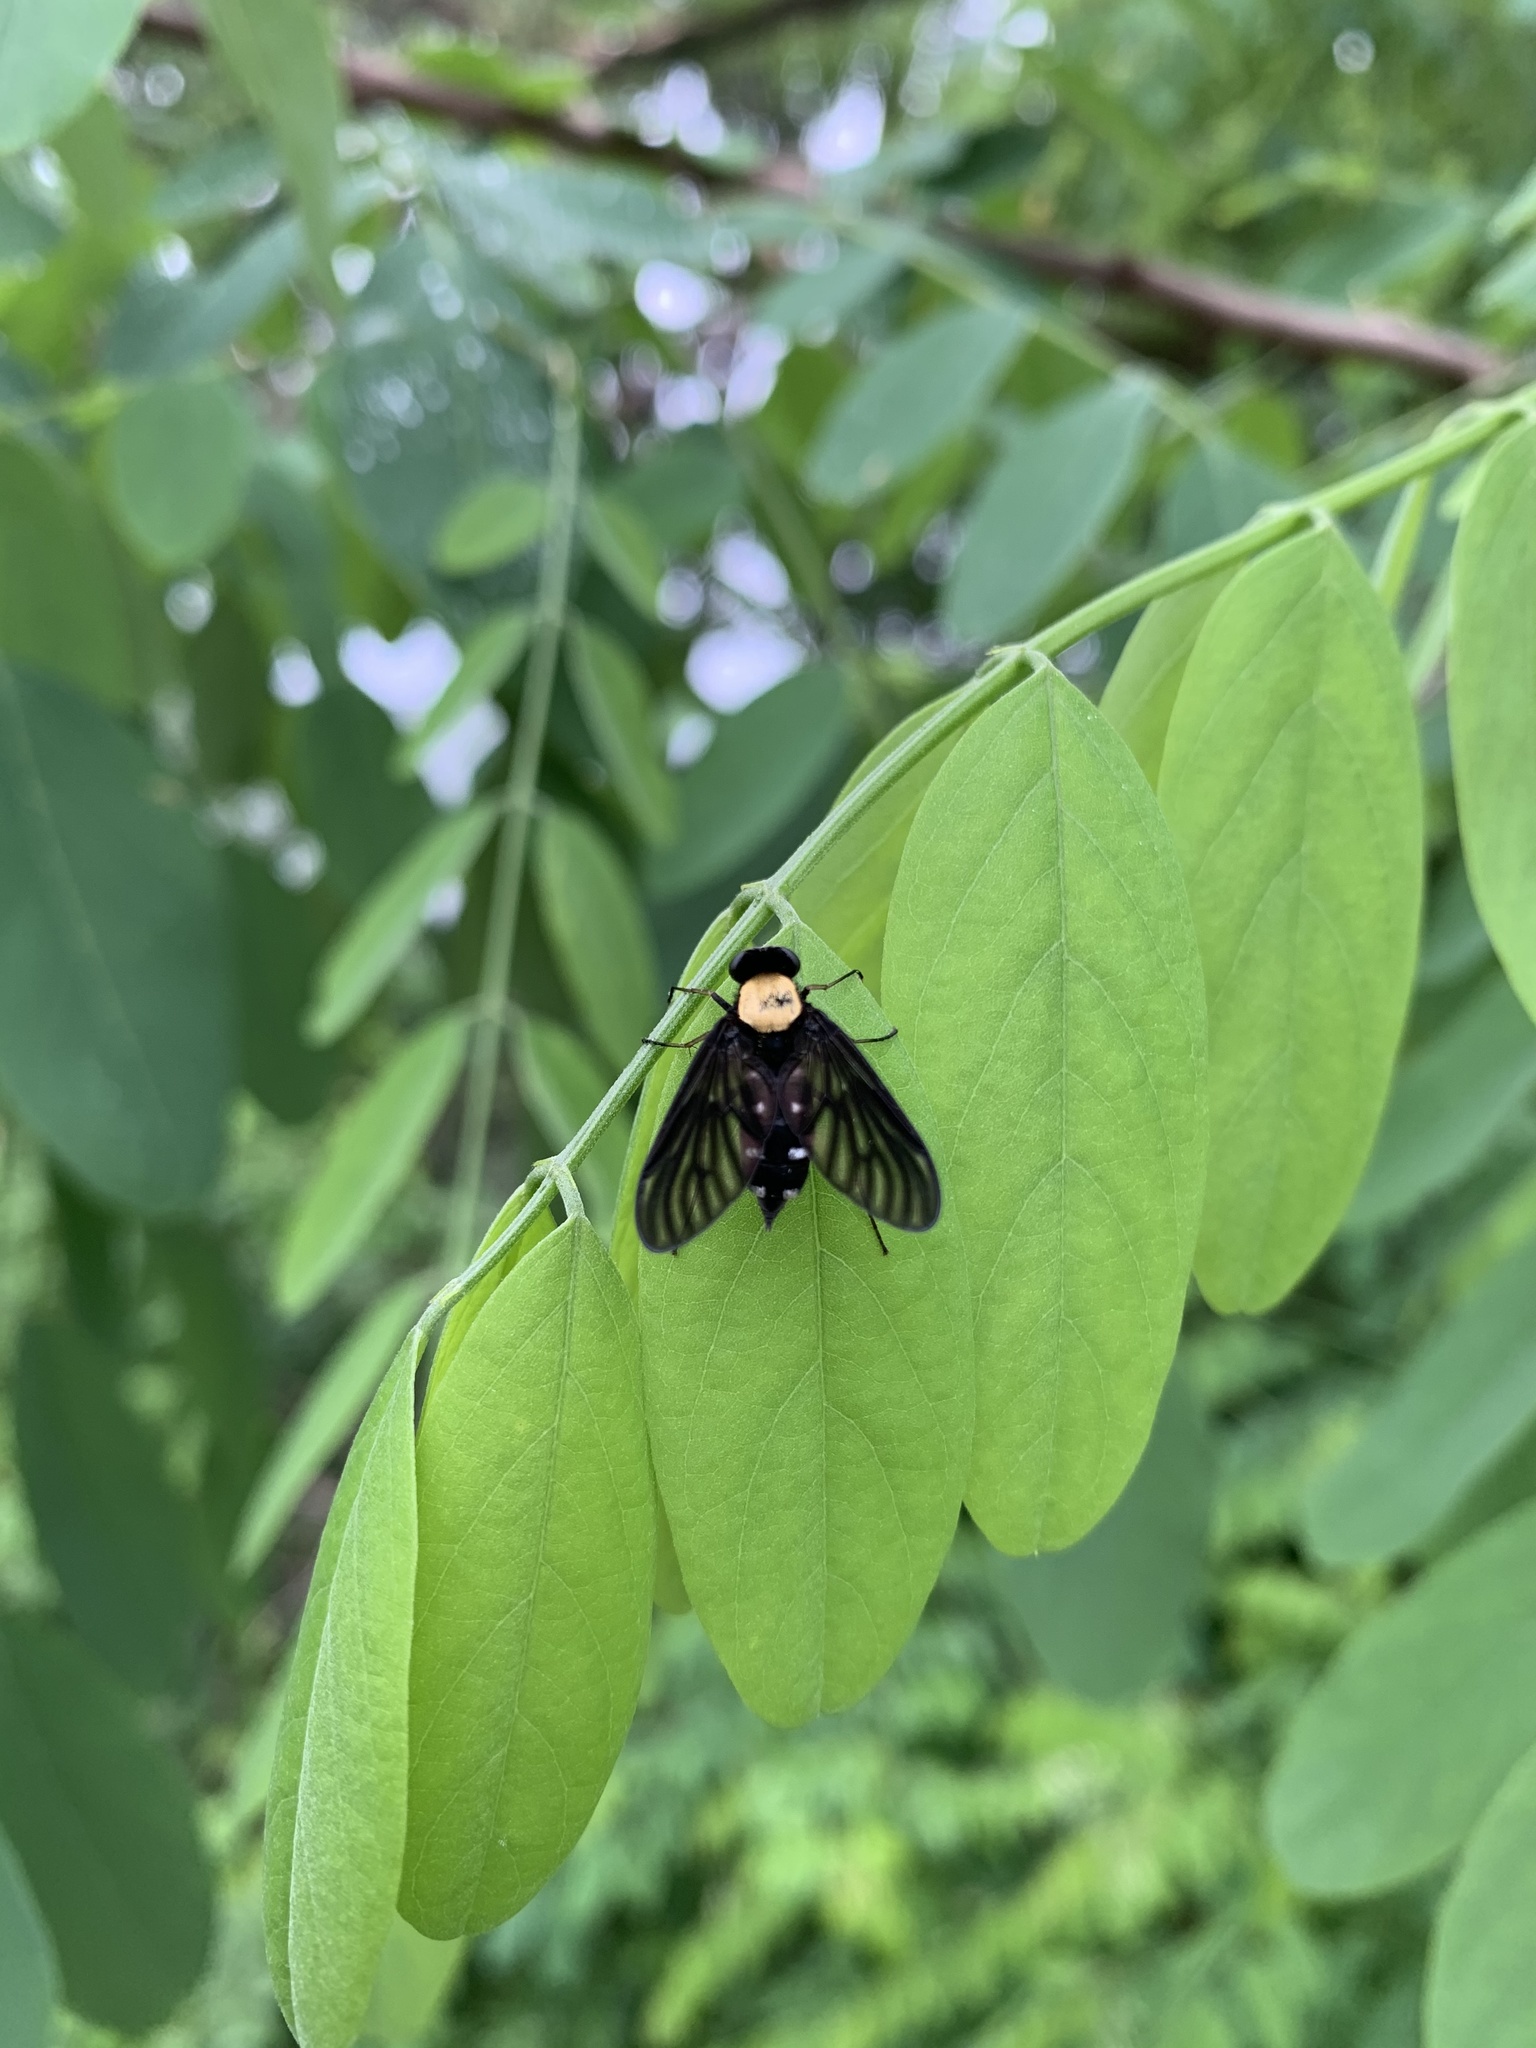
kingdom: Animalia
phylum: Arthropoda
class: Insecta
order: Diptera
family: Rhagionidae
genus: Chrysopilus
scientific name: Chrysopilus thoracicus
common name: Golden-backed snipe fly
